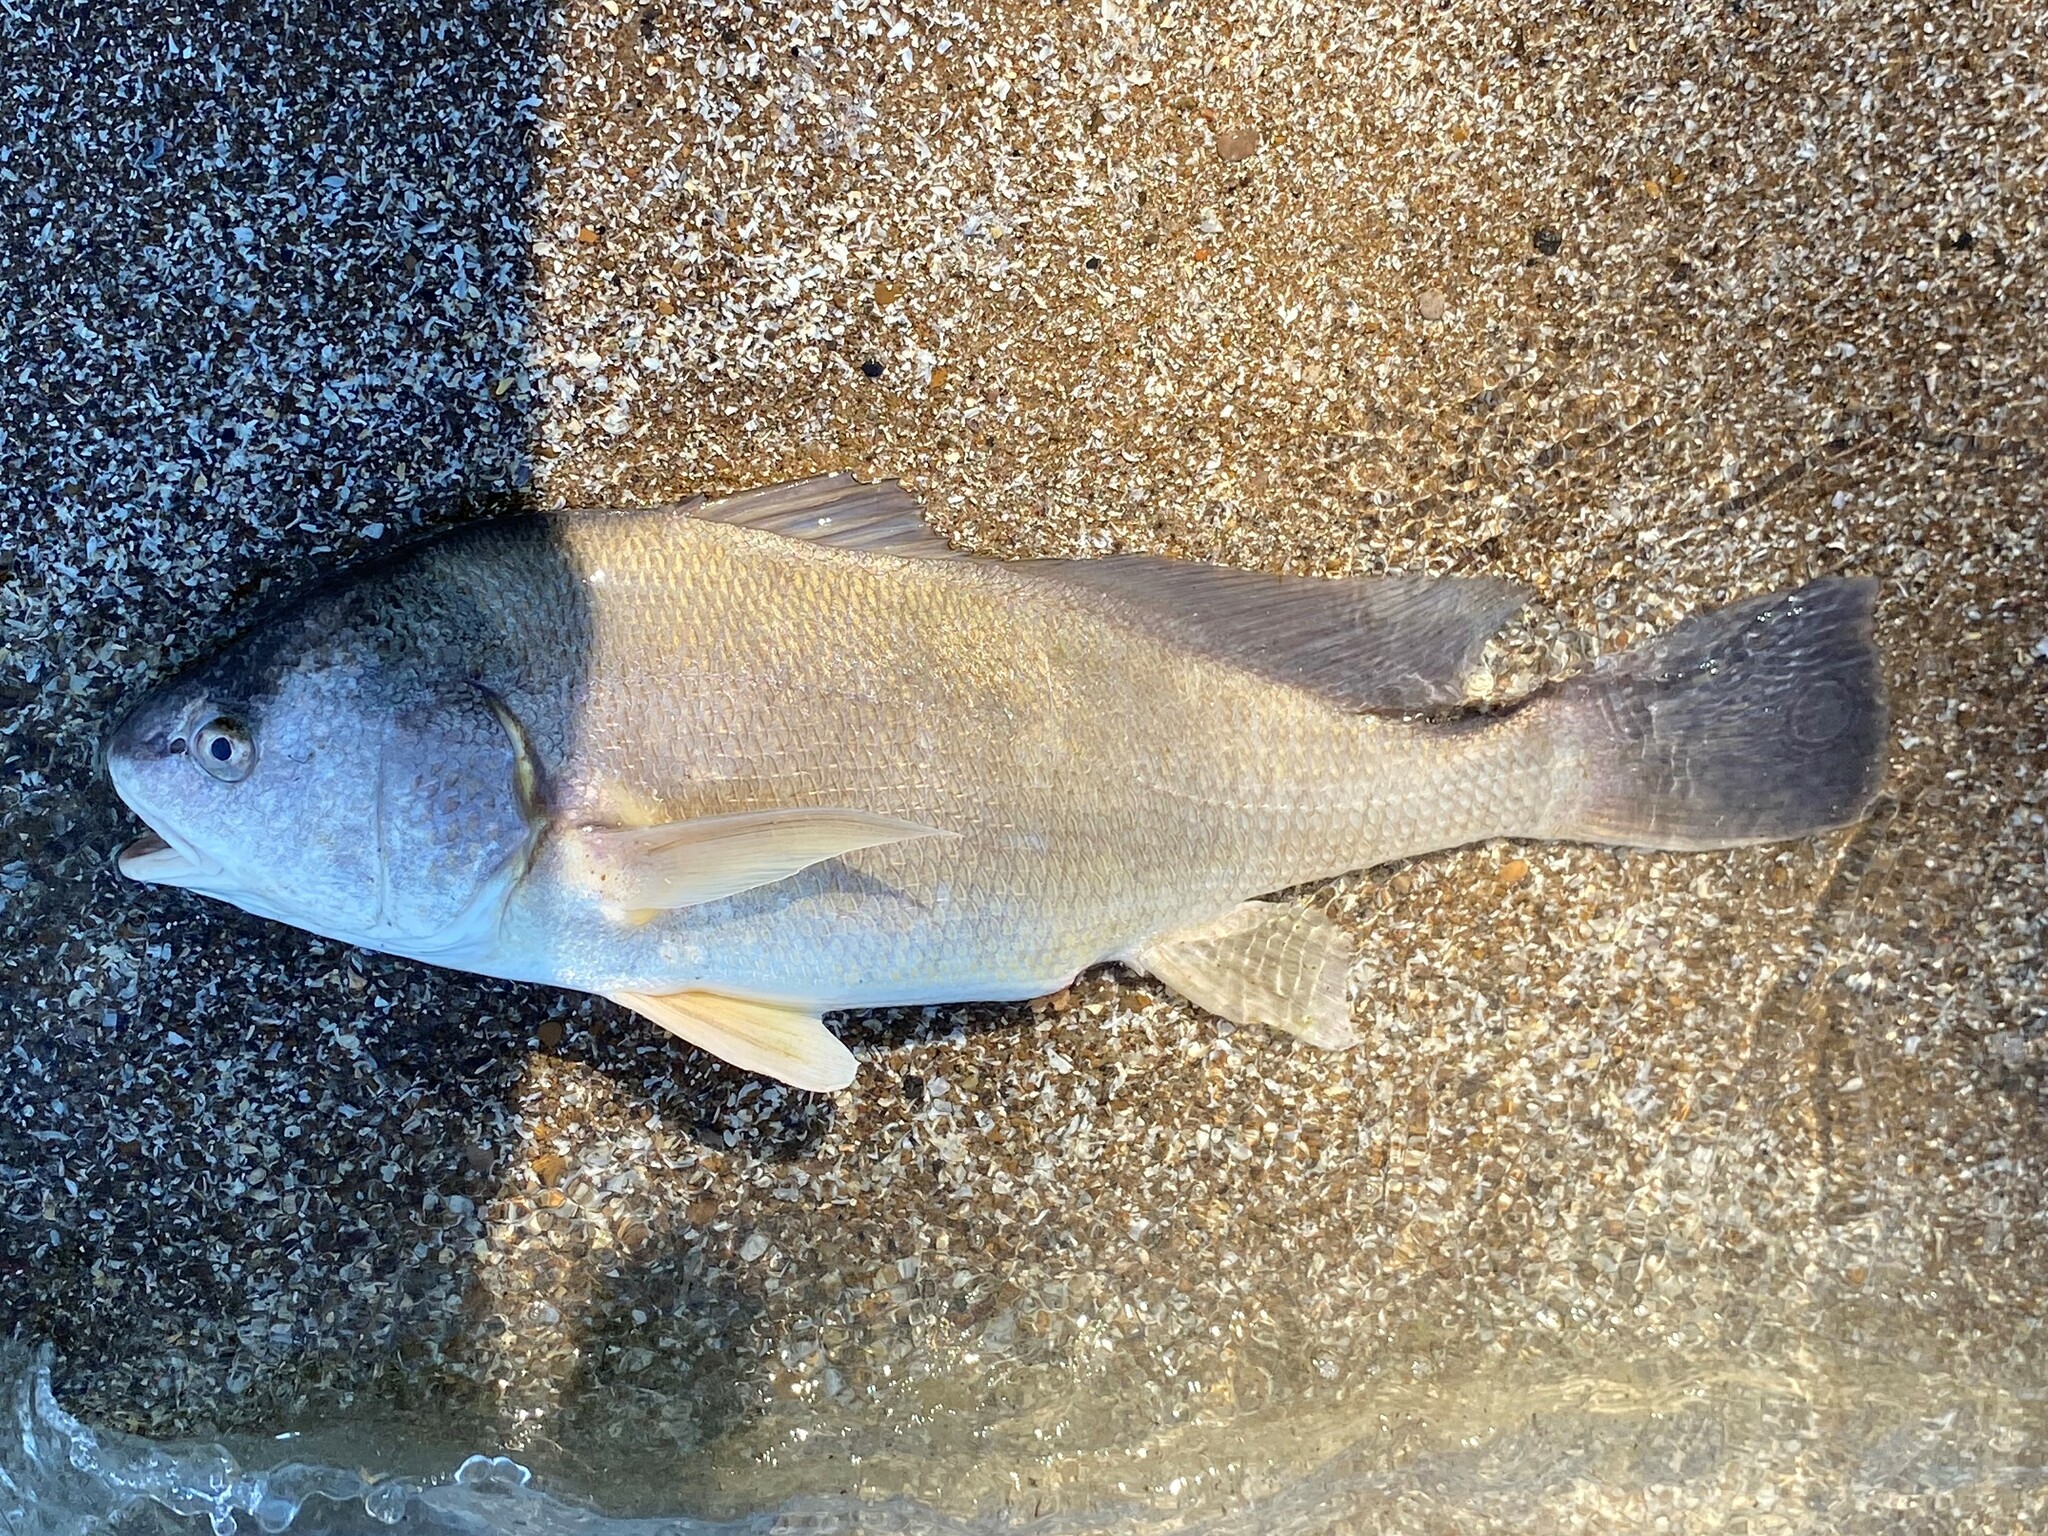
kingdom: Animalia
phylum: Chordata
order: Perciformes
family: Sciaenidae
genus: Aplodinotus
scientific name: Aplodinotus grunniens
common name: Freshwater drum
